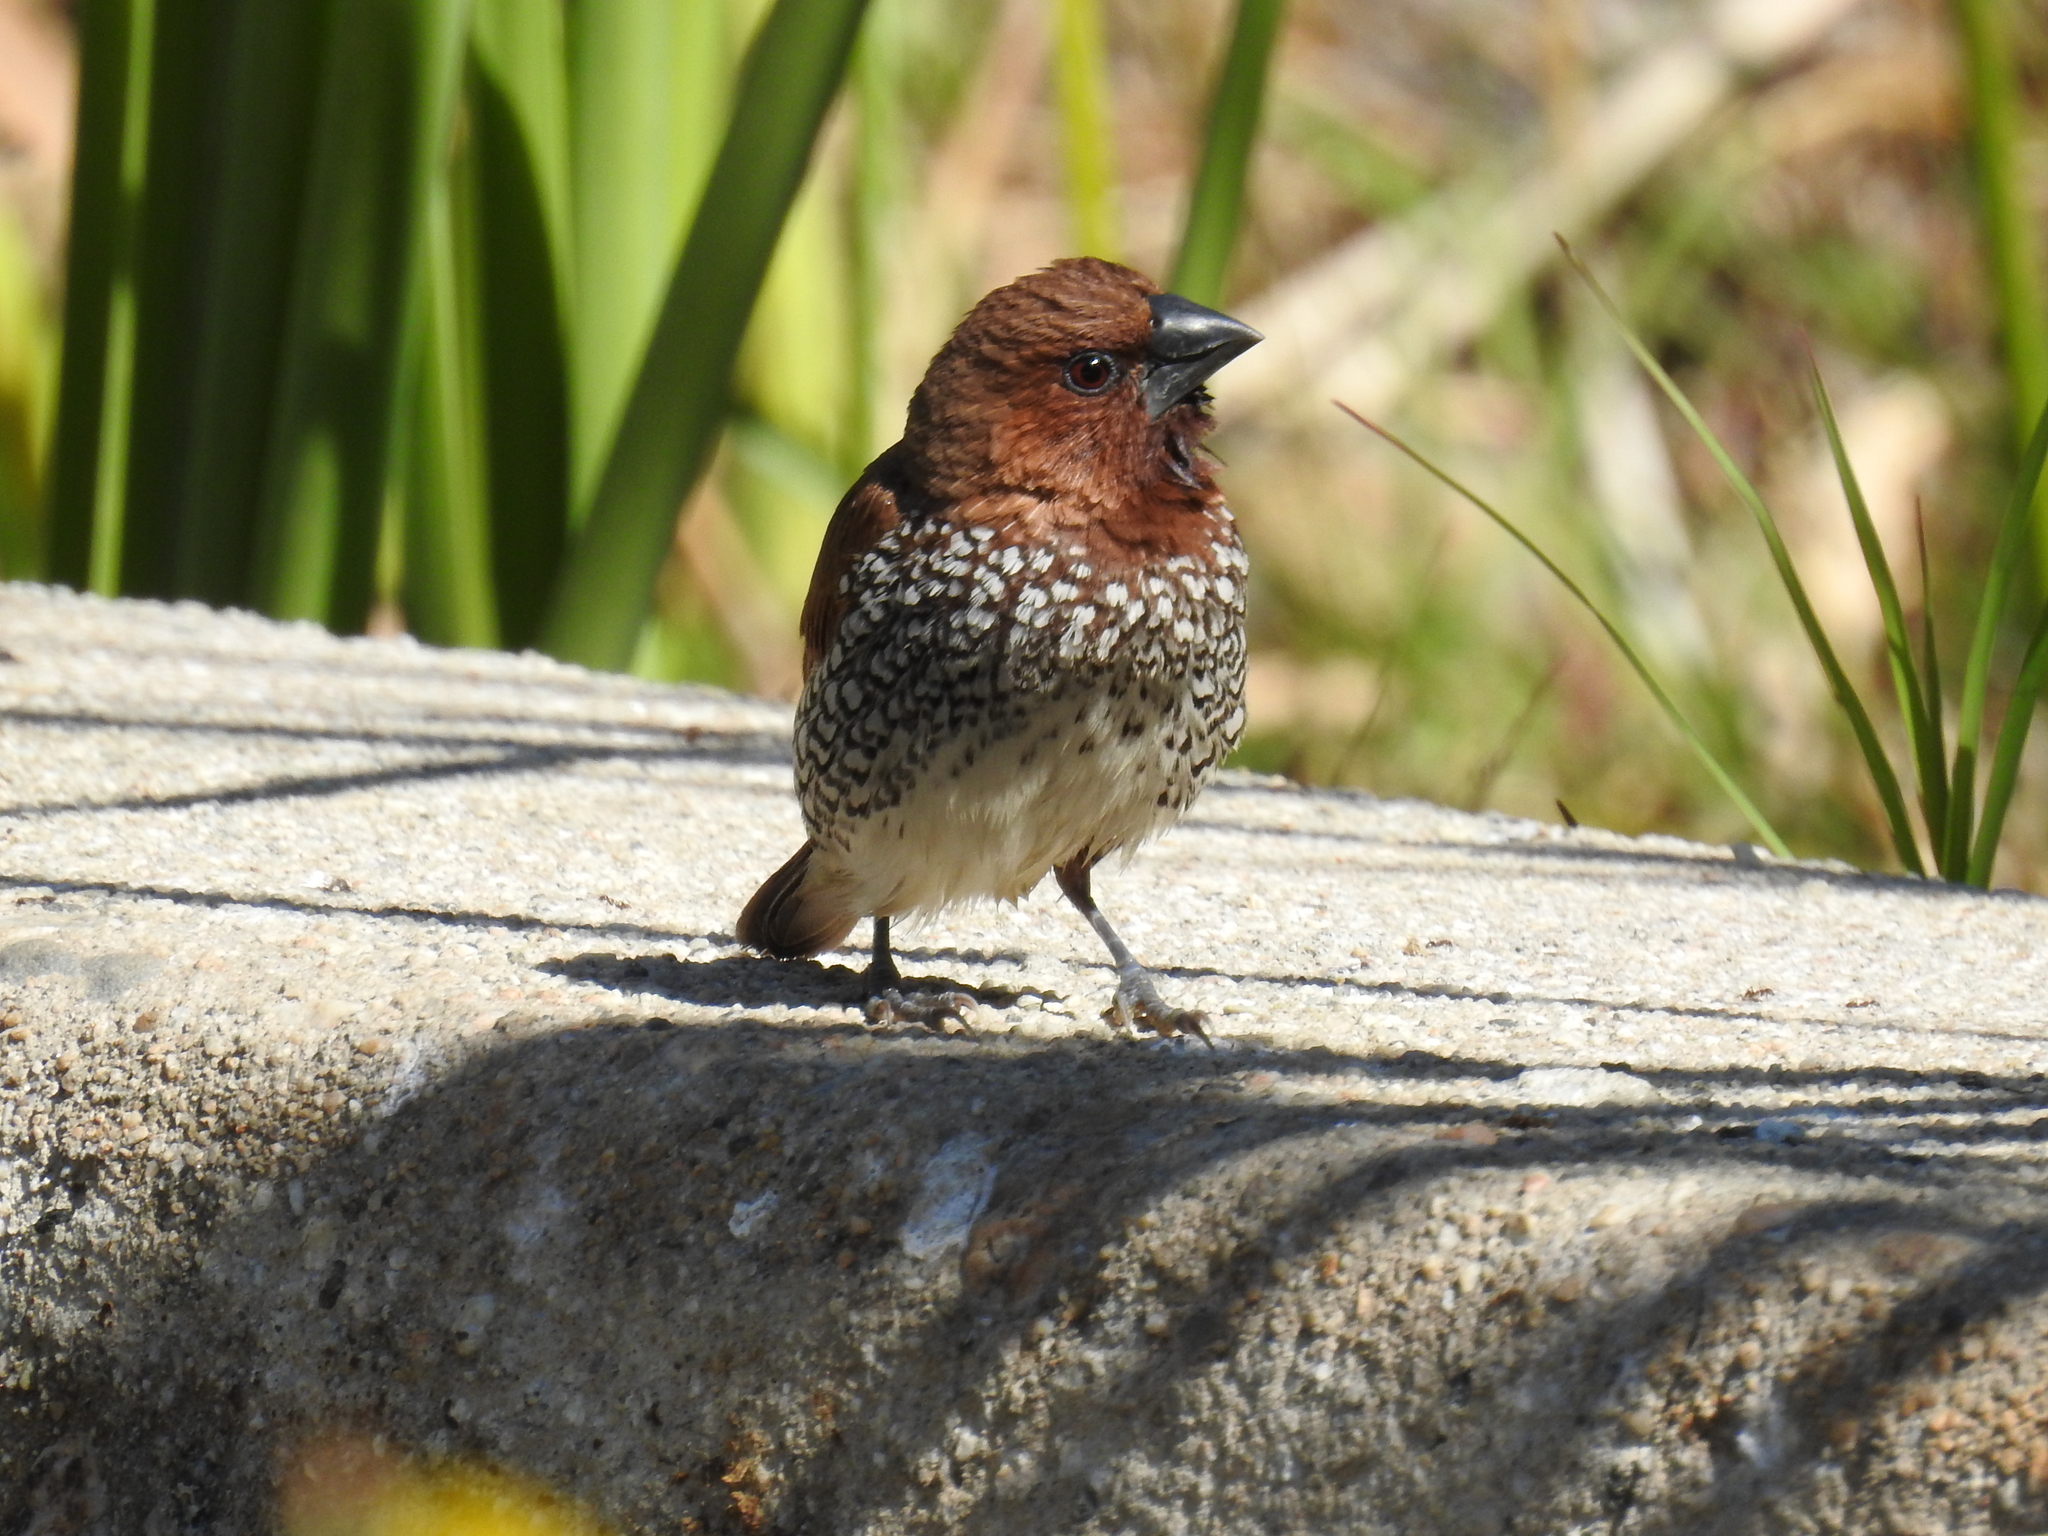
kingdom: Animalia
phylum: Chordata
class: Aves
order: Passeriformes
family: Estrildidae
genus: Lonchura
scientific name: Lonchura punctulata
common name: Scaly-breasted munia
